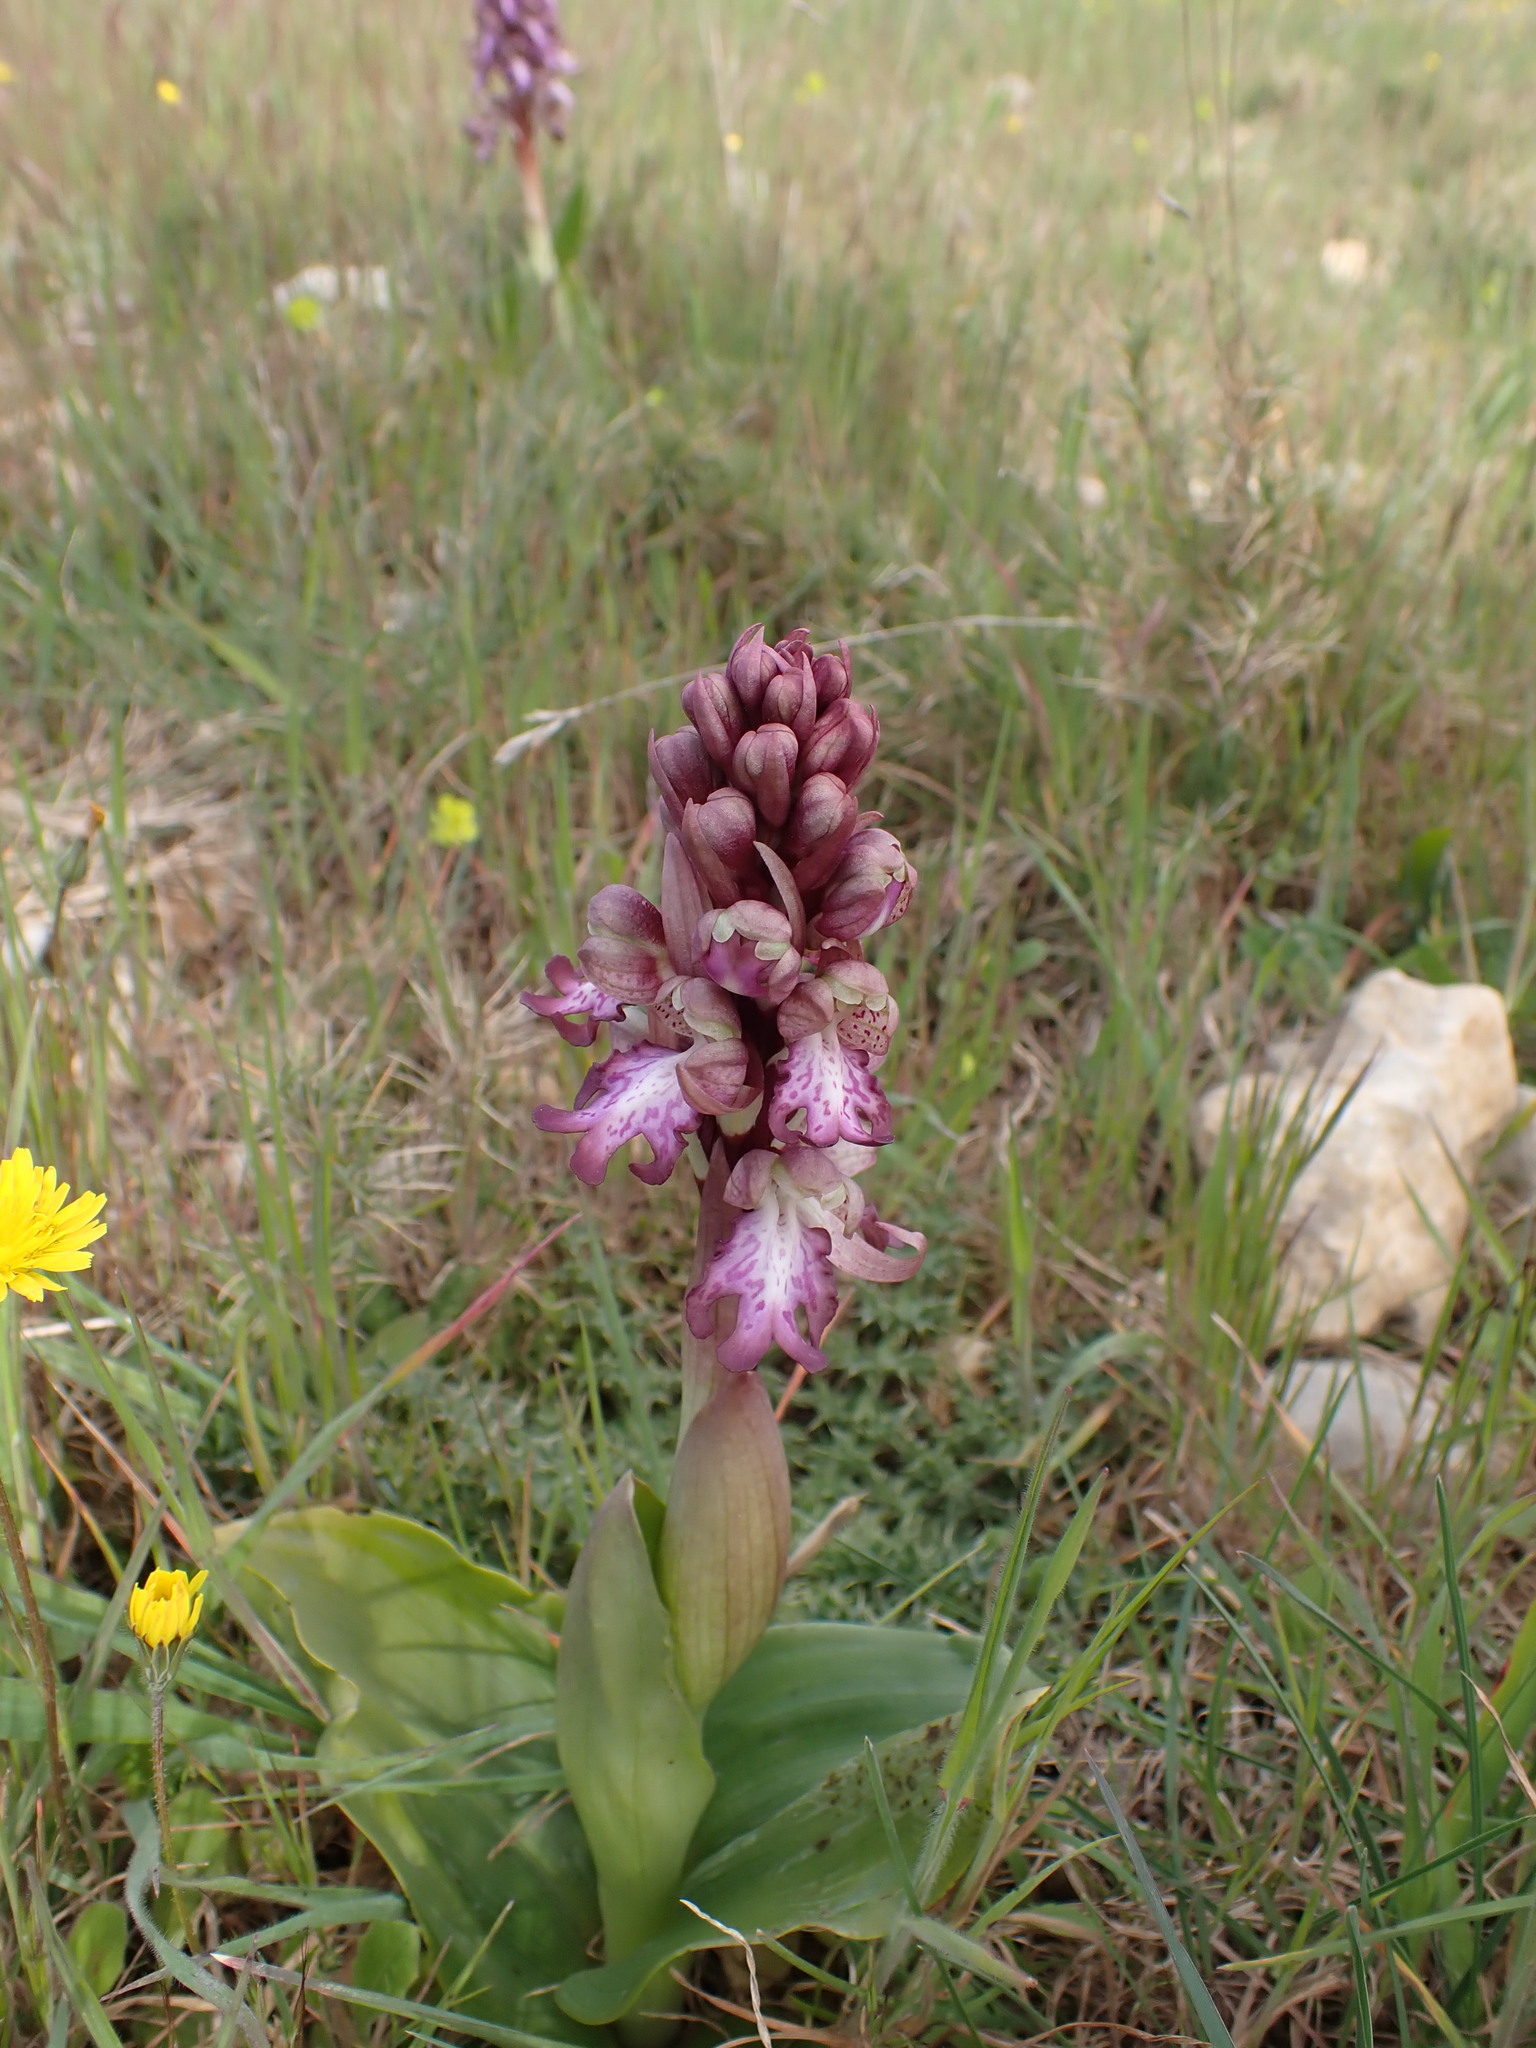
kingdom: Plantae
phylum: Tracheophyta
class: Liliopsida
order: Asparagales
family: Orchidaceae
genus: Himantoglossum
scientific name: Himantoglossum robertianum
